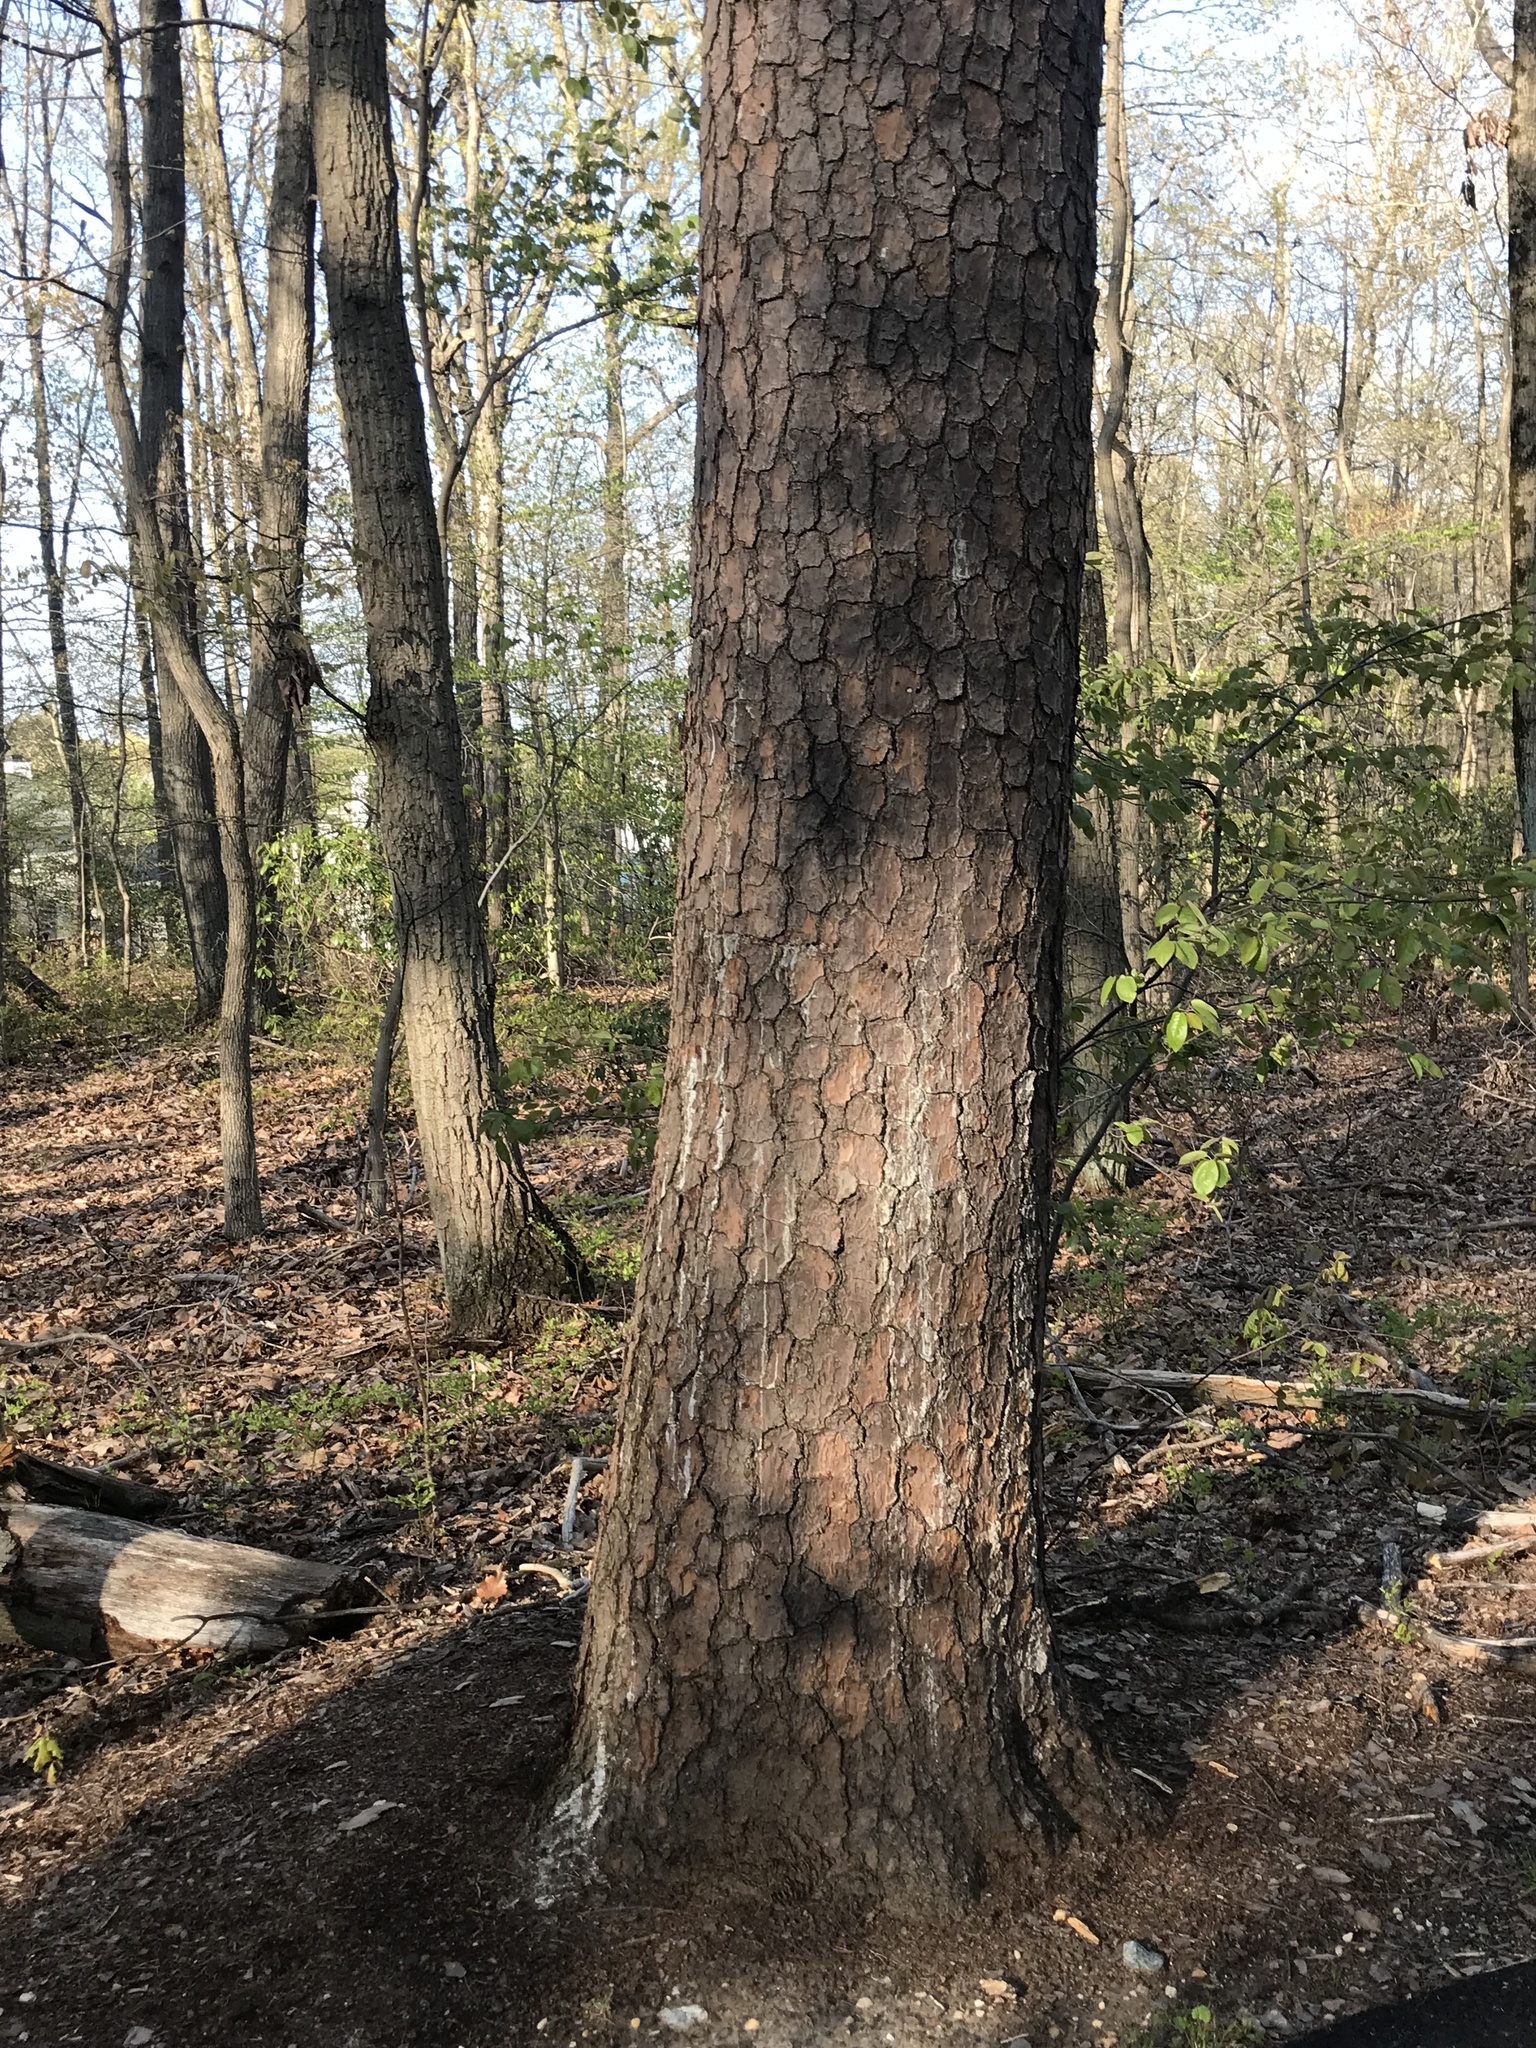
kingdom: Plantae
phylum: Tracheophyta
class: Pinopsida
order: Pinales
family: Pinaceae
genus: Pinus
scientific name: Pinus virginiana
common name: Scrub pine
